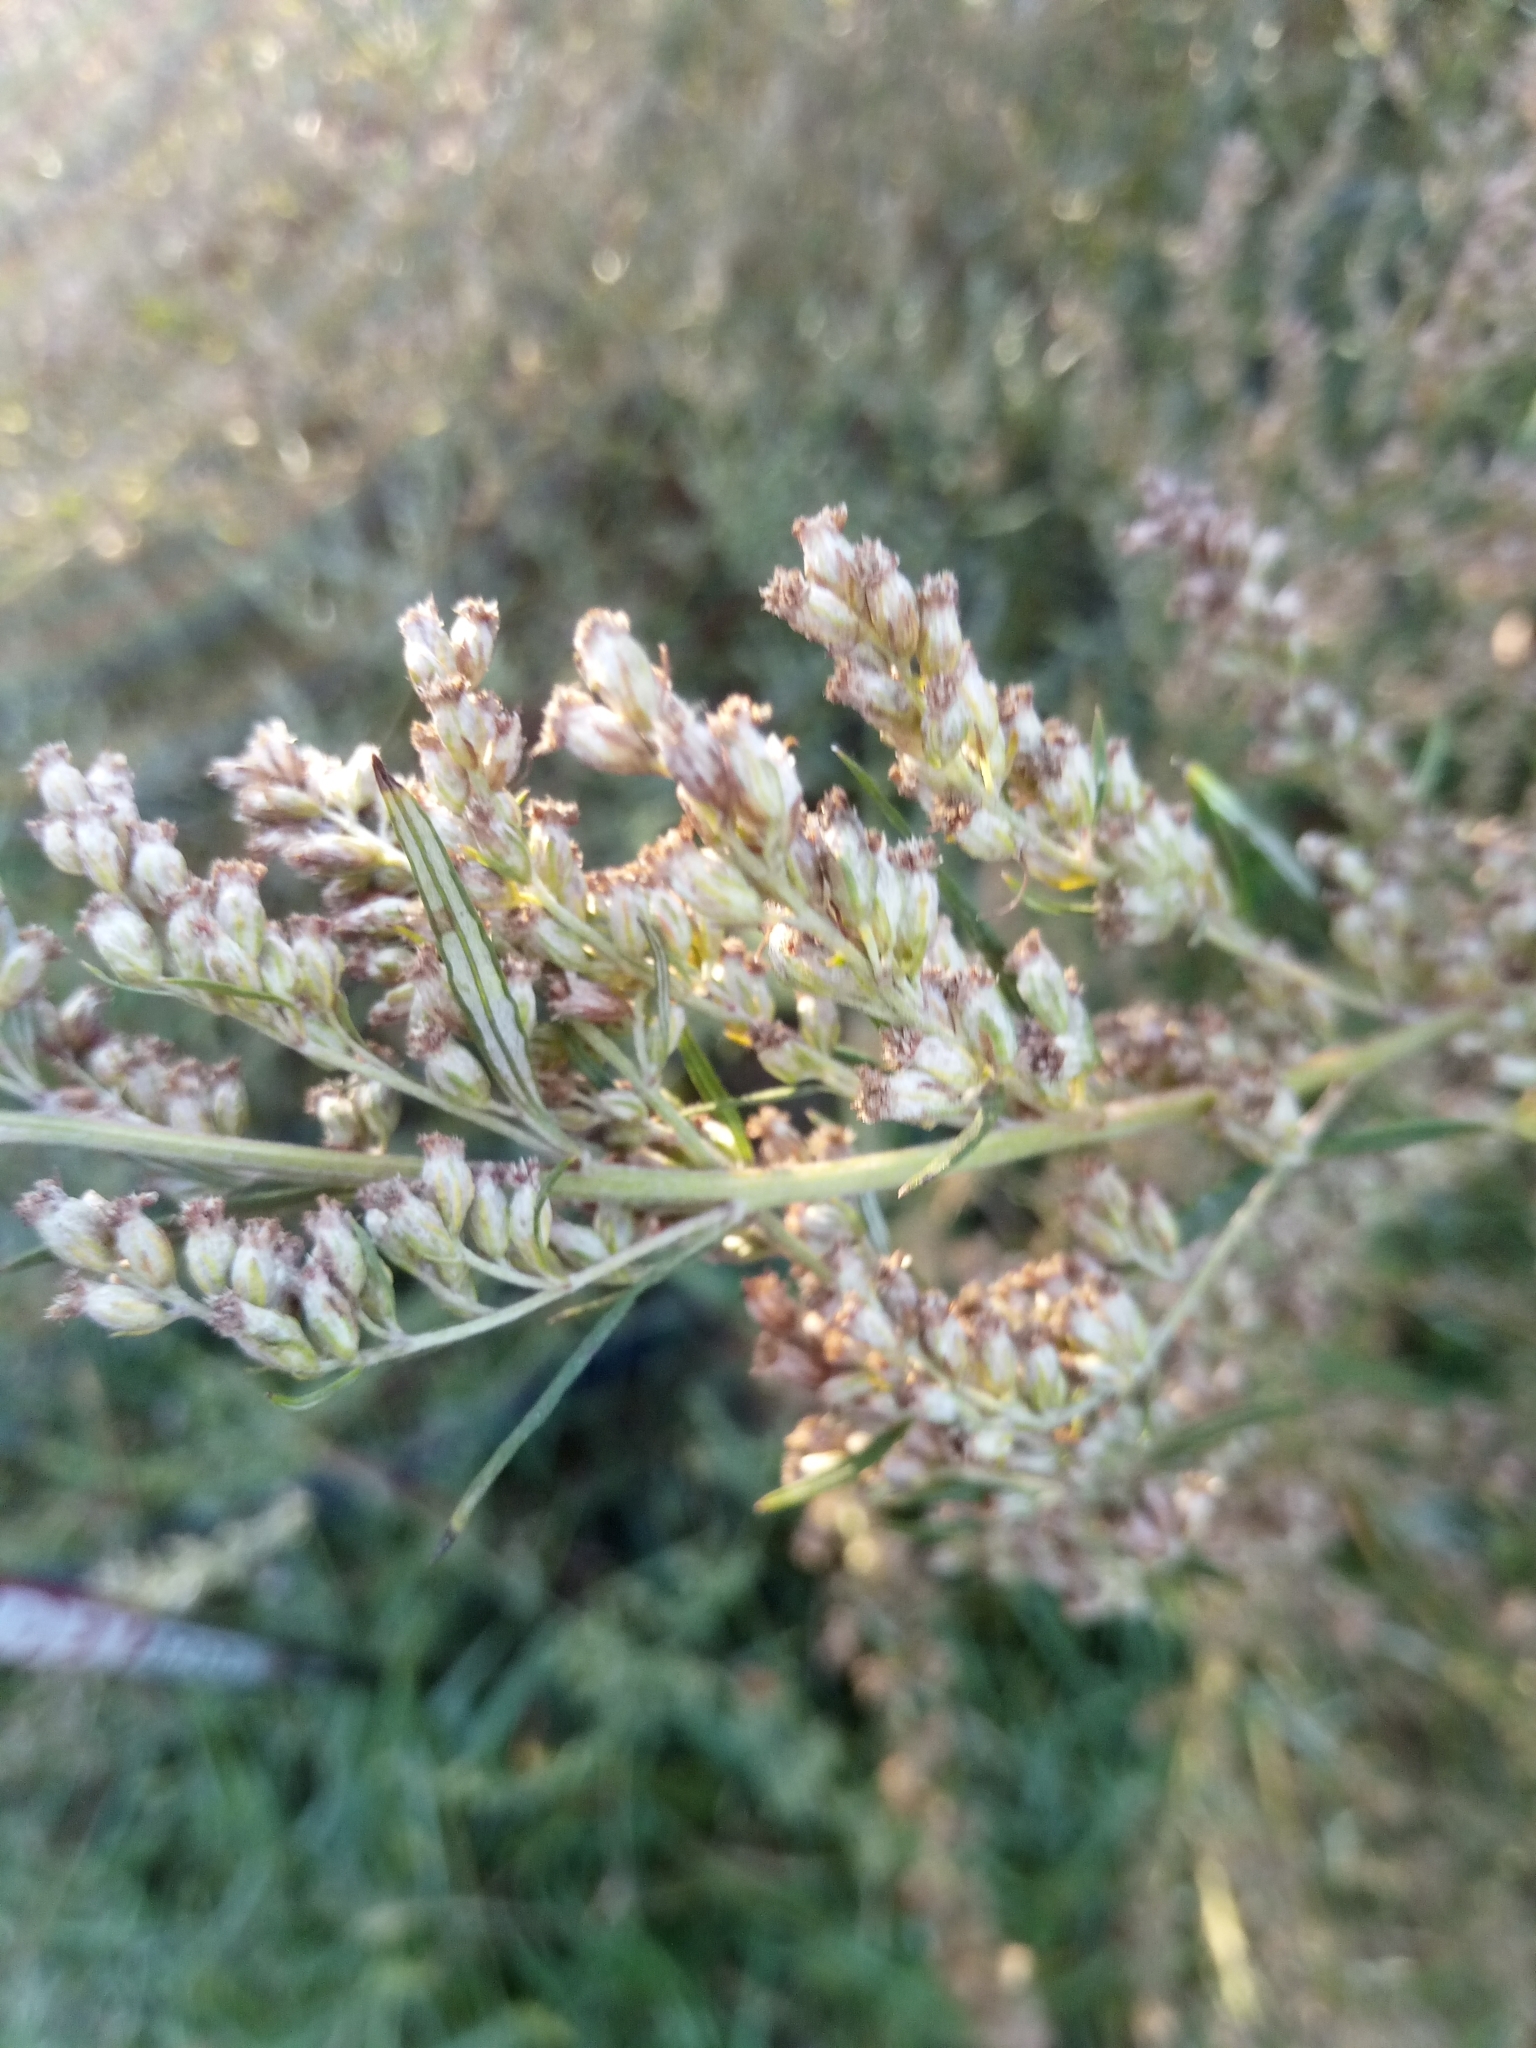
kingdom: Plantae
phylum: Tracheophyta
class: Magnoliopsida
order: Asterales
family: Asteraceae
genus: Artemisia
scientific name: Artemisia vulgaris
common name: Mugwort
